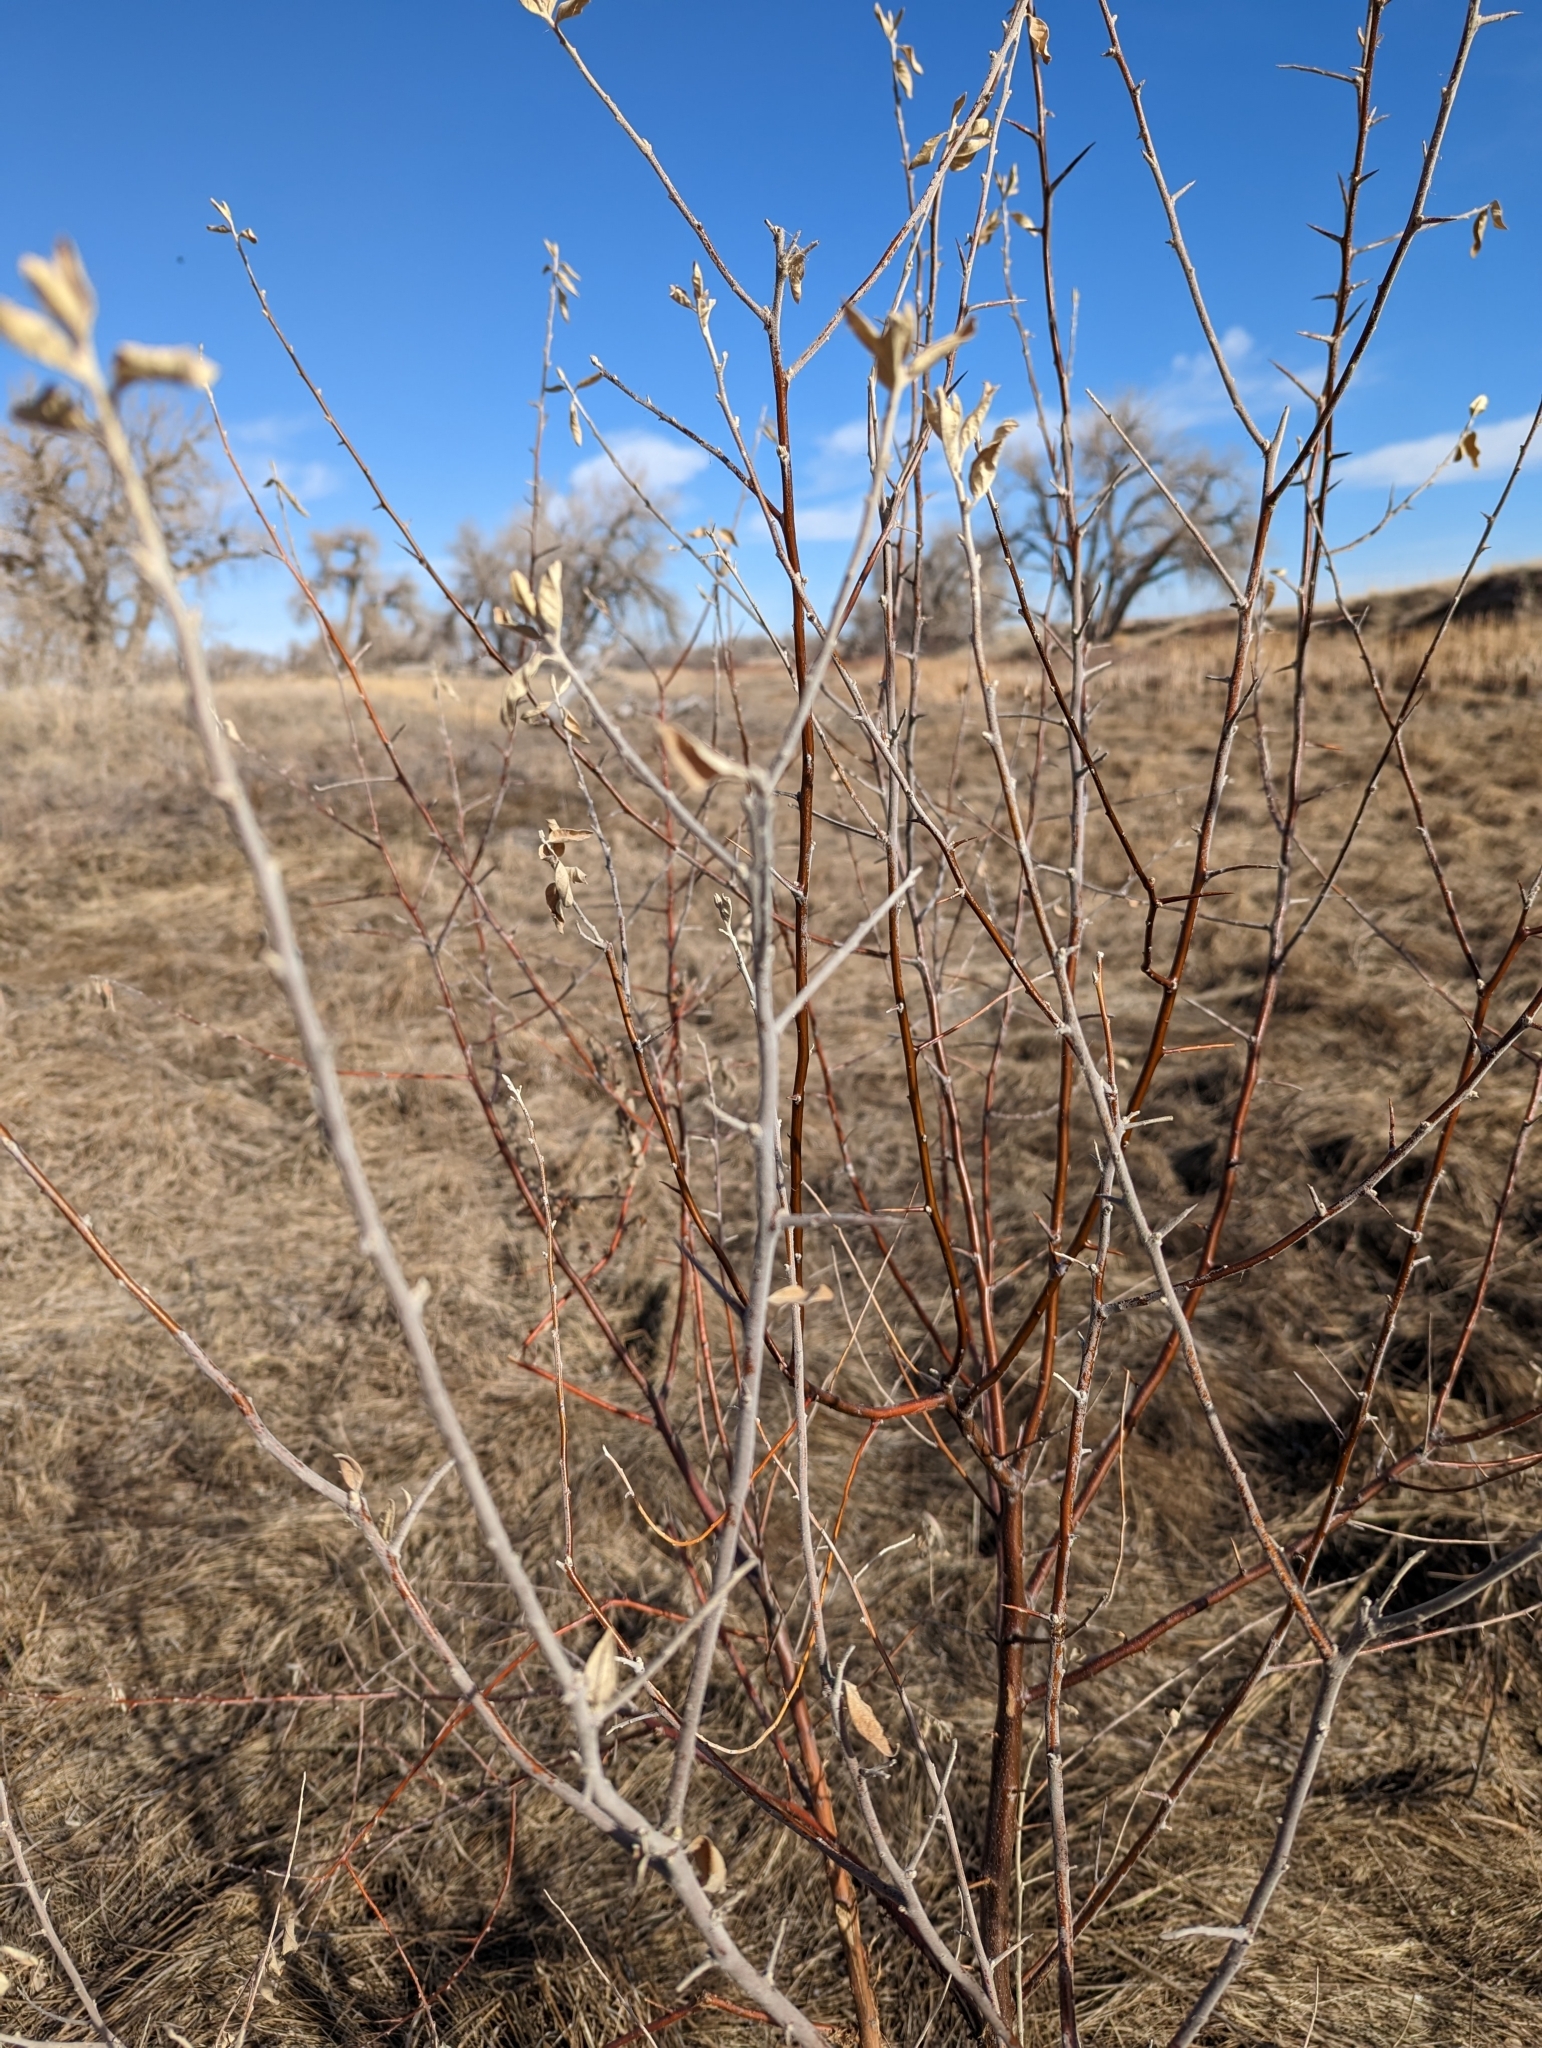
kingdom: Plantae
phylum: Tracheophyta
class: Magnoliopsida
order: Rosales
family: Elaeagnaceae
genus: Elaeagnus
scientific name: Elaeagnus angustifolia
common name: Russian olive
